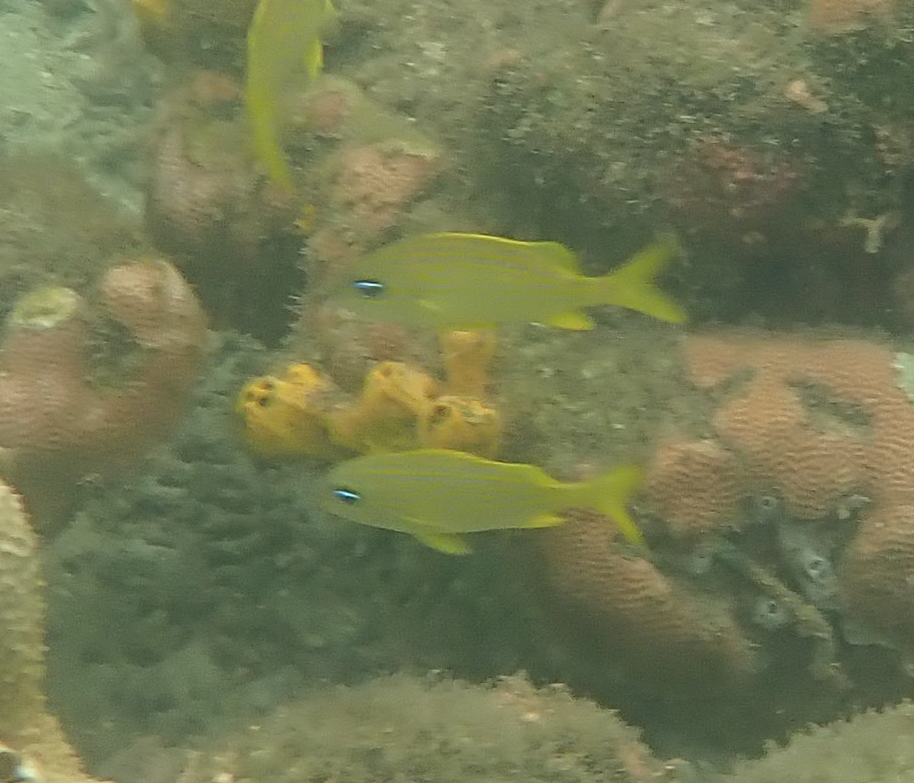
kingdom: Animalia
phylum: Chordata
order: Perciformes
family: Haemulidae
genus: Haemulon
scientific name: Haemulon flavolineatum
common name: French grunt
